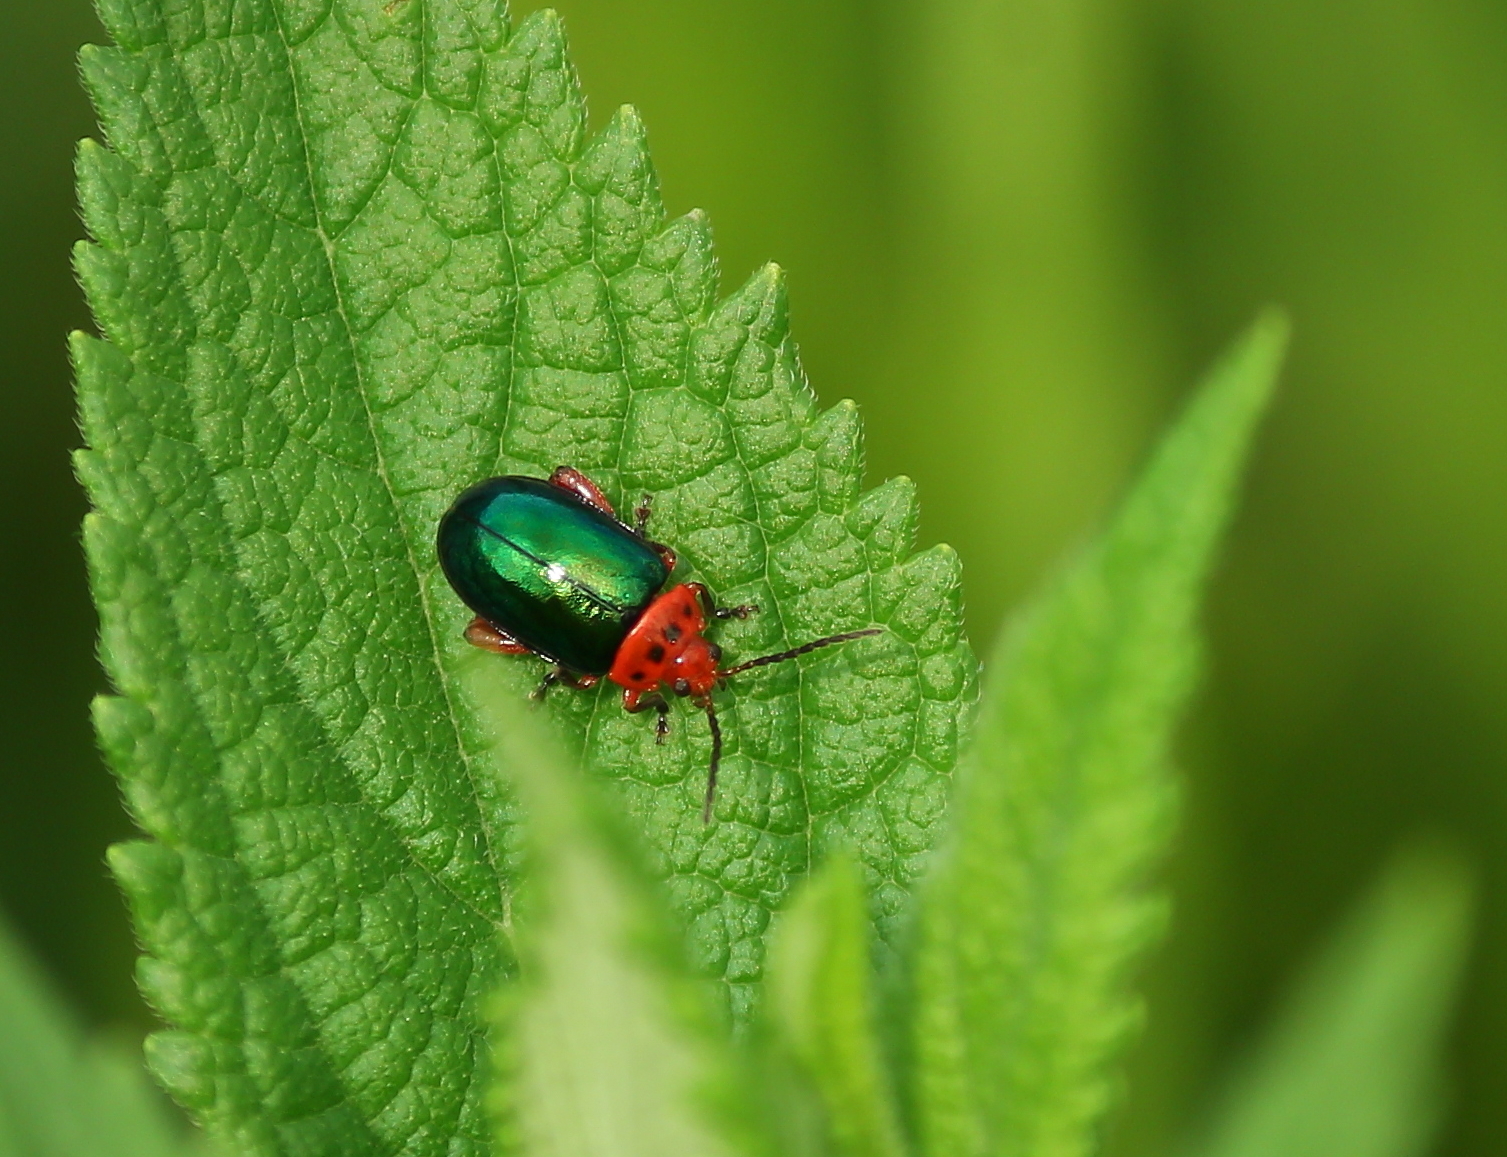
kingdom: Animalia
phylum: Arthropoda
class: Insecta
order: Coleoptera
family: Chrysomelidae
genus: Kuschelina
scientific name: Kuschelina gibbitarsa
